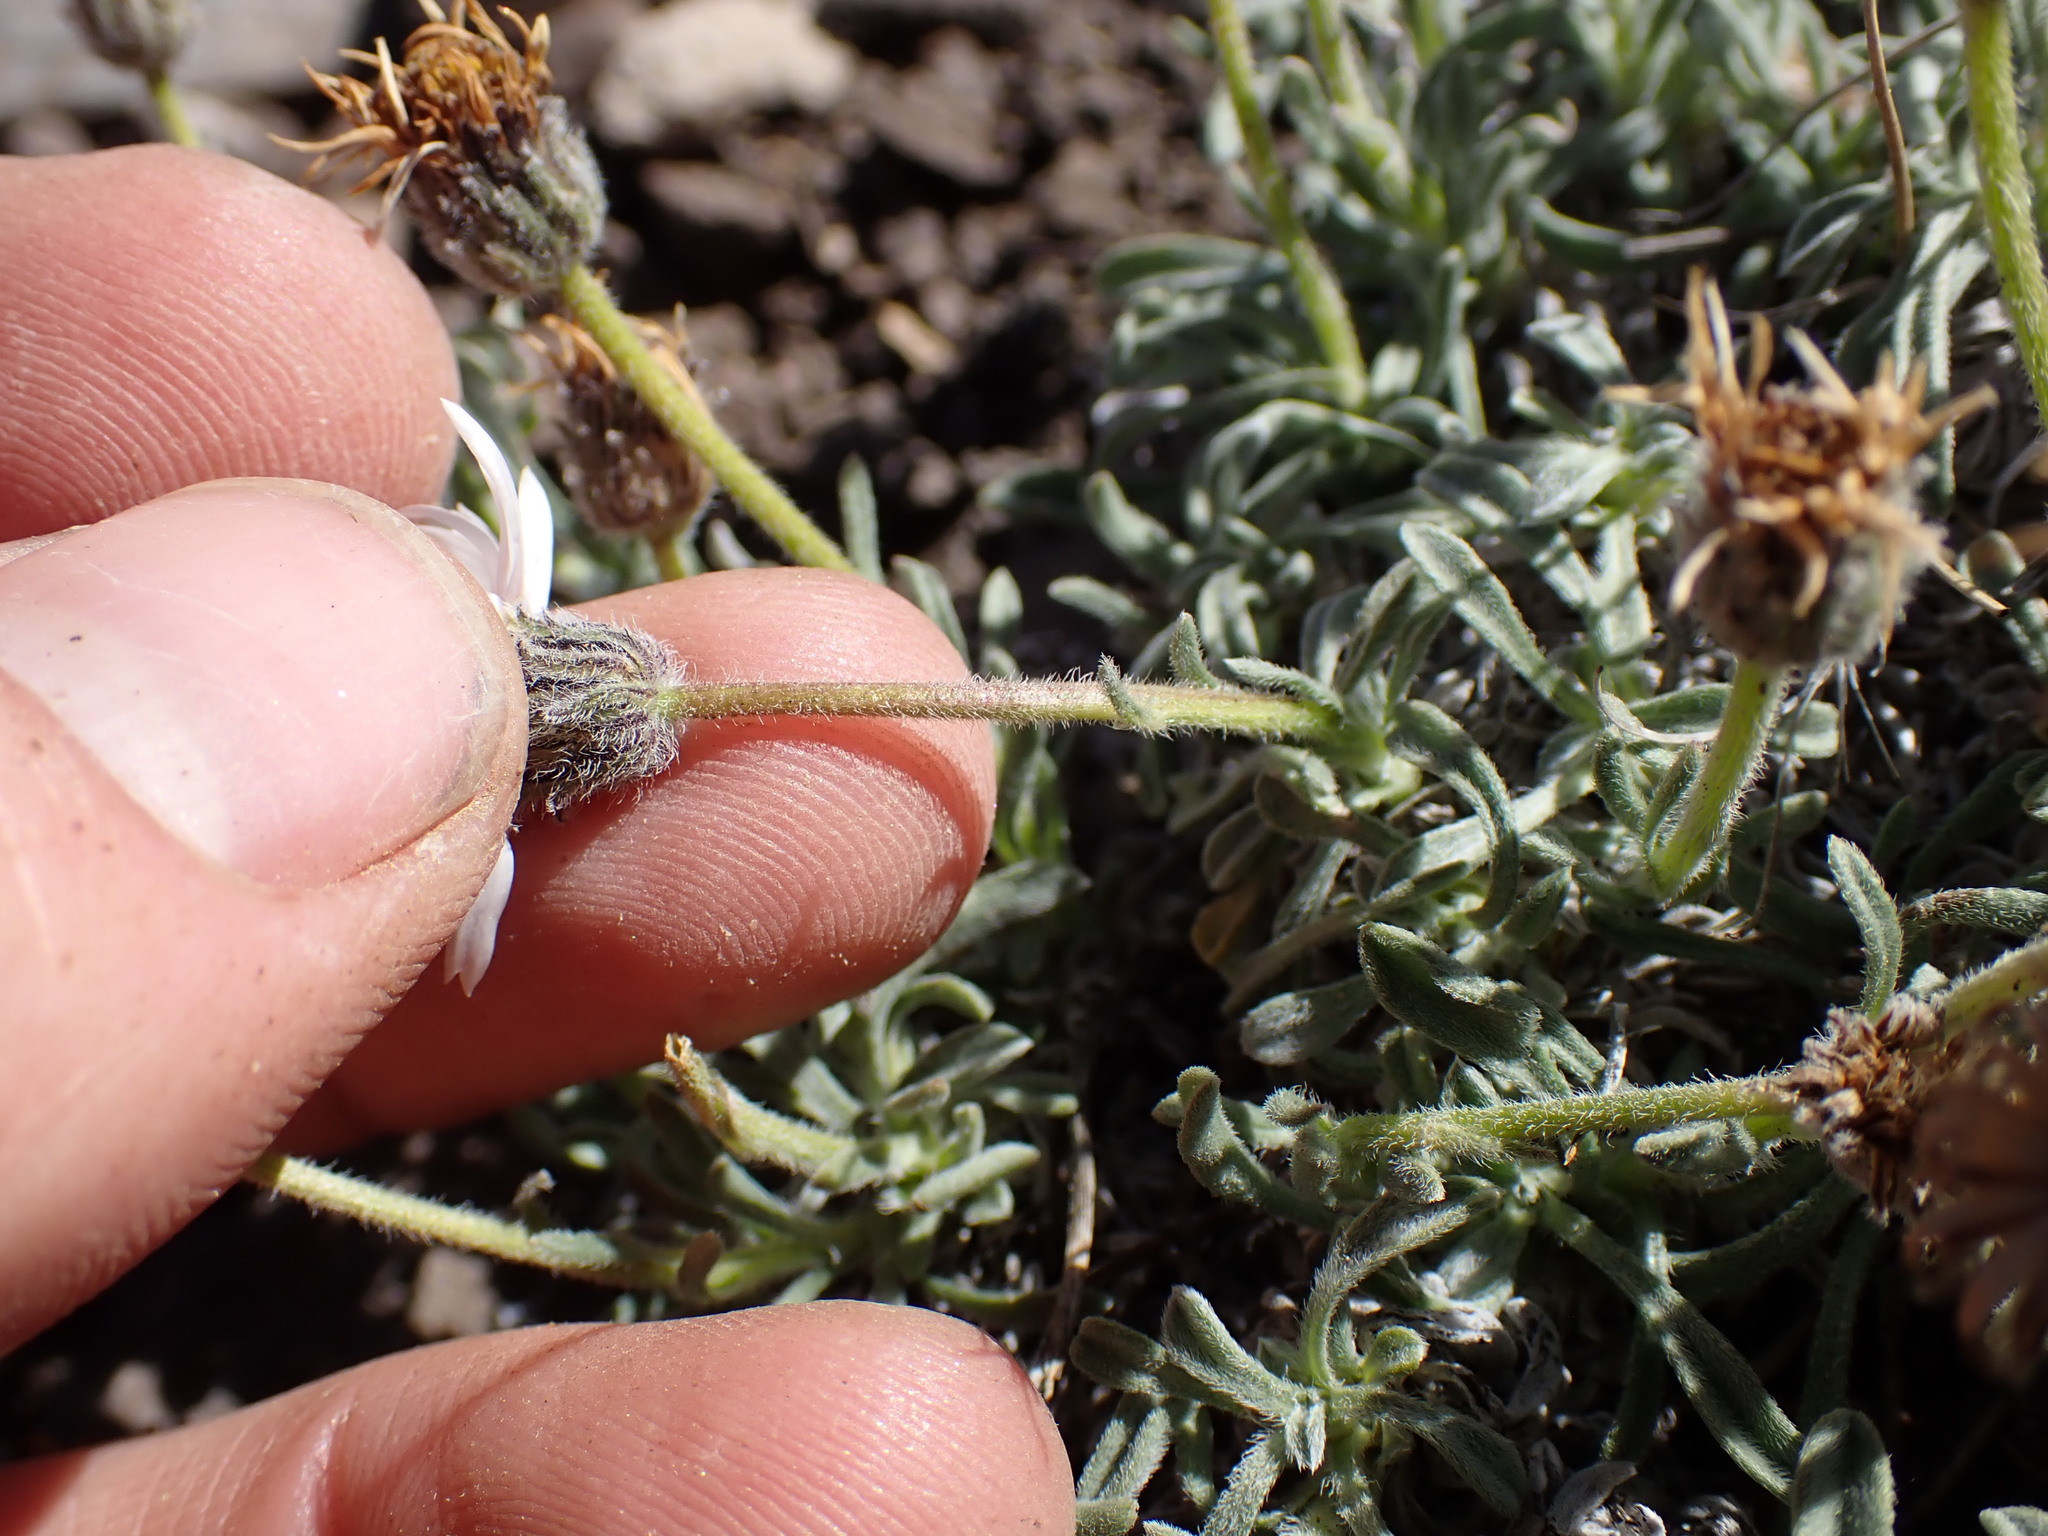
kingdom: Plantae
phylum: Tracheophyta
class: Magnoliopsida
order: Asterales
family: Asteraceae
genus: Erigeron
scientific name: Erigeron pygmaeus
